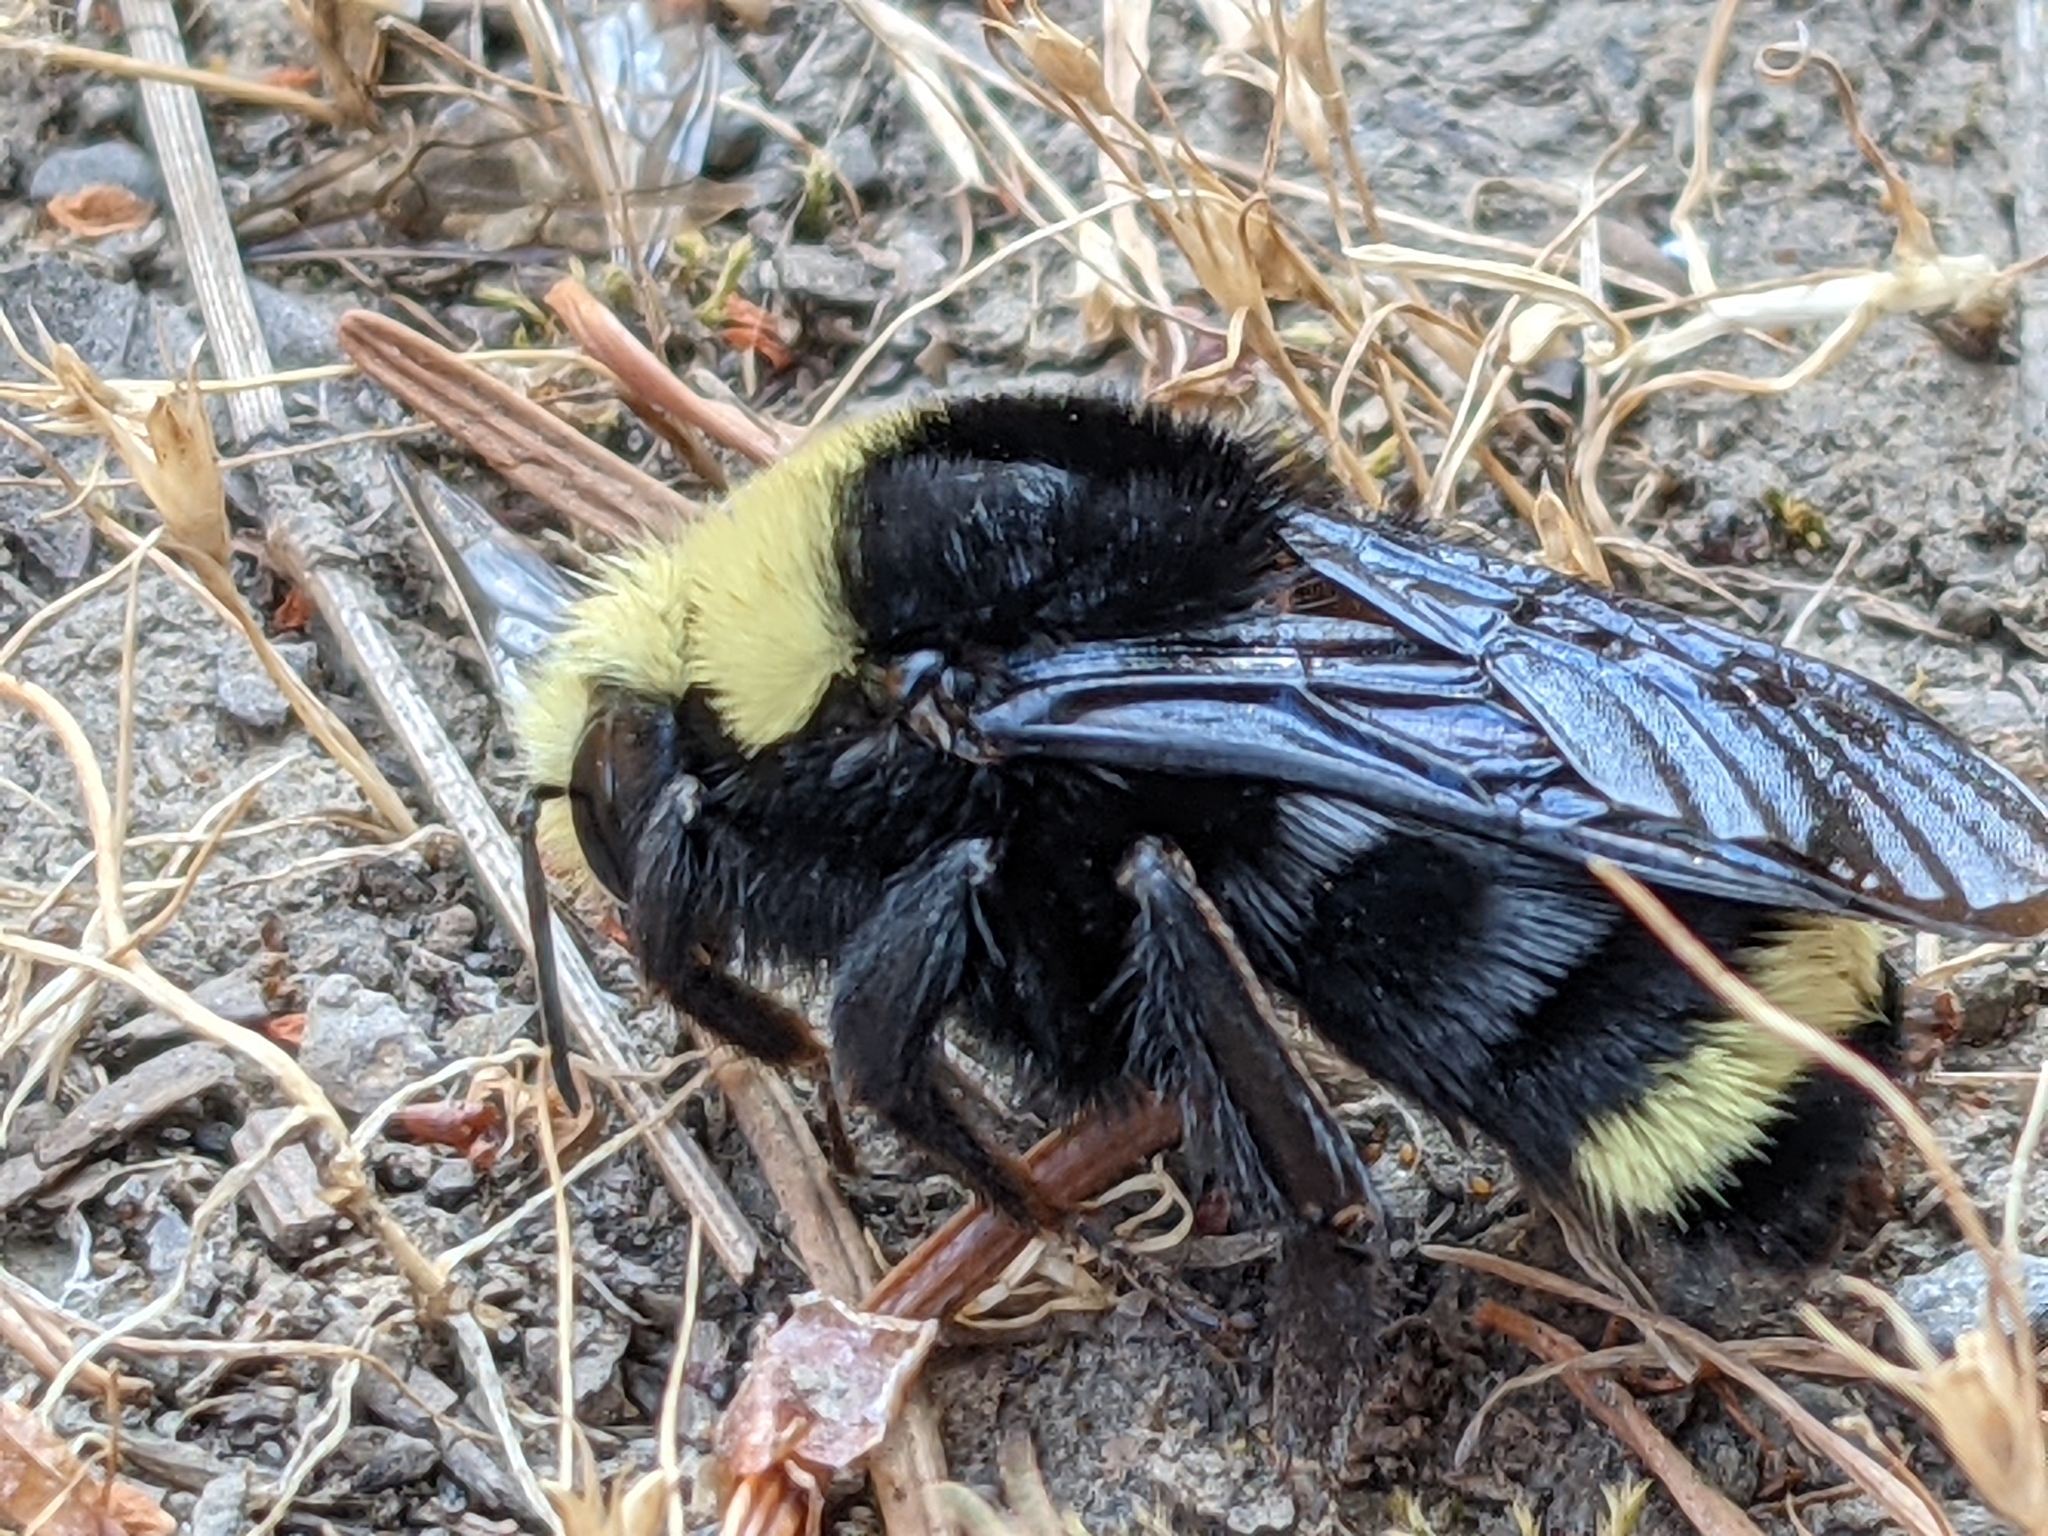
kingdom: Animalia
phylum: Arthropoda
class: Insecta
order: Hymenoptera
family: Apidae
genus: Bombus
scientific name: Bombus vosnesenskii
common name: Vosnesensky bumble bee
